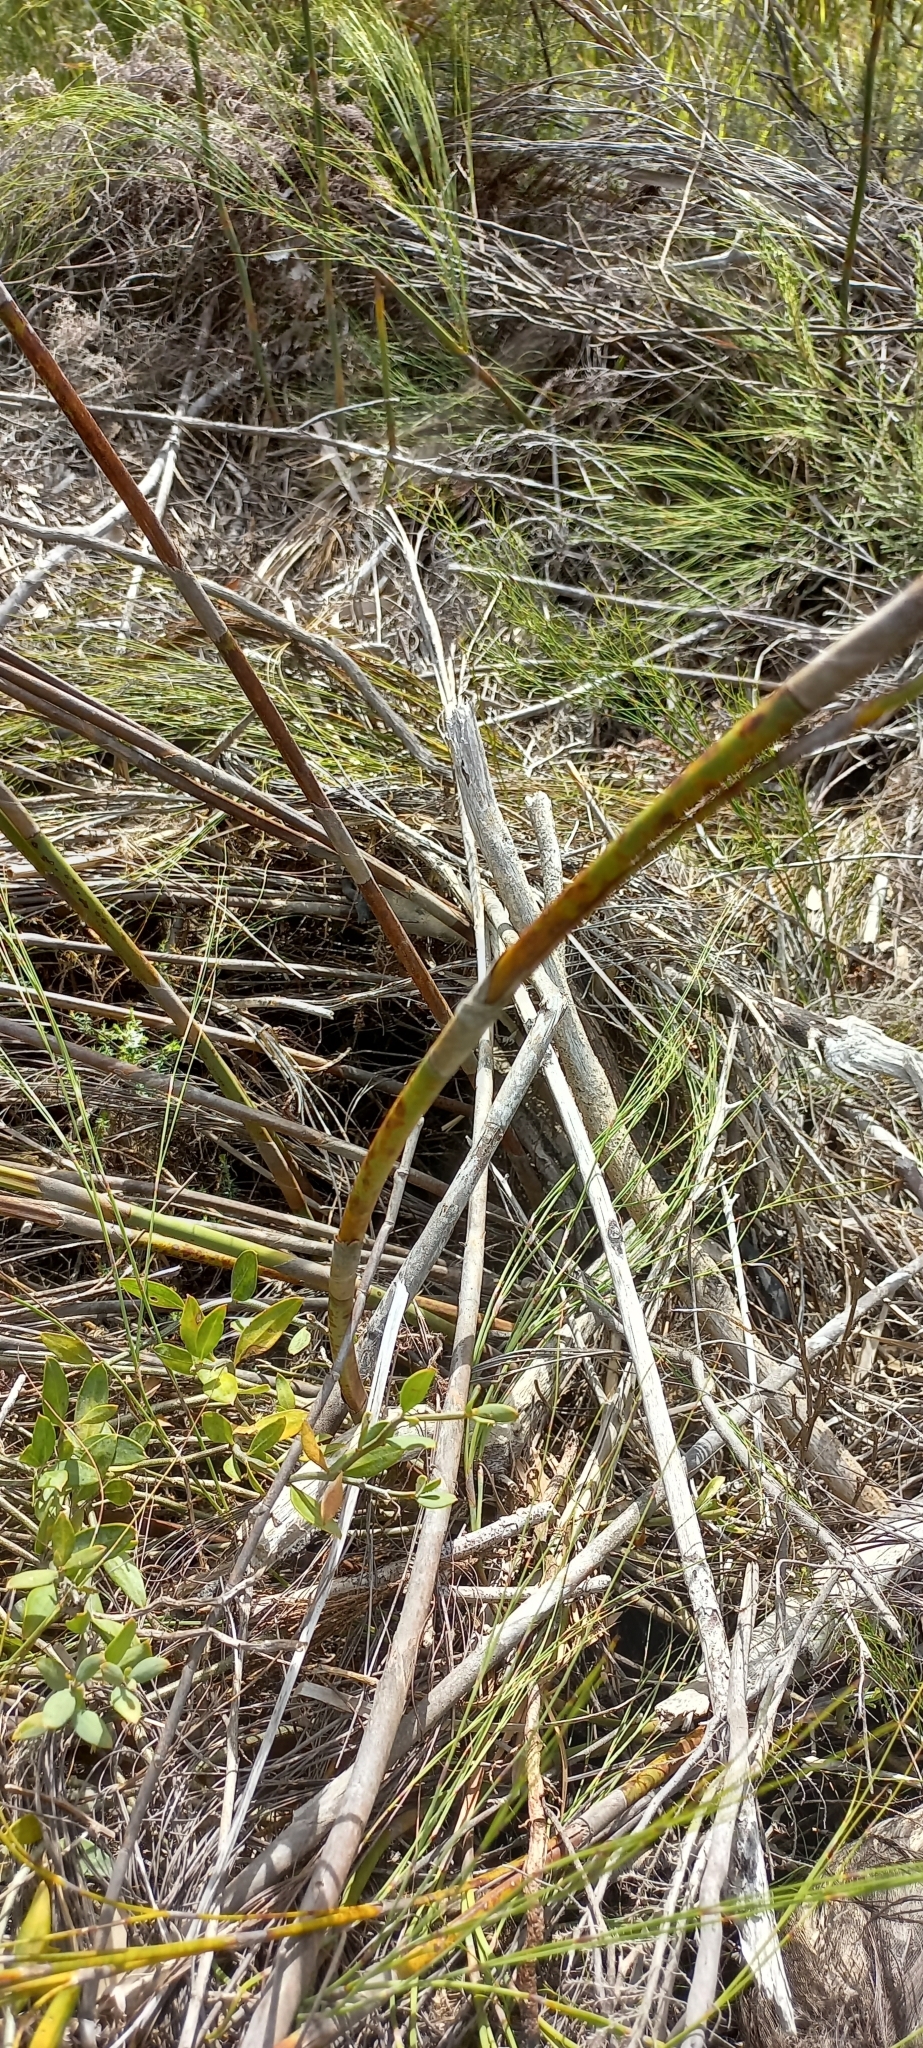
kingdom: Plantae
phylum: Tracheophyta
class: Liliopsida
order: Poales
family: Restionaceae
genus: Cannomois
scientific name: Cannomois virgata
